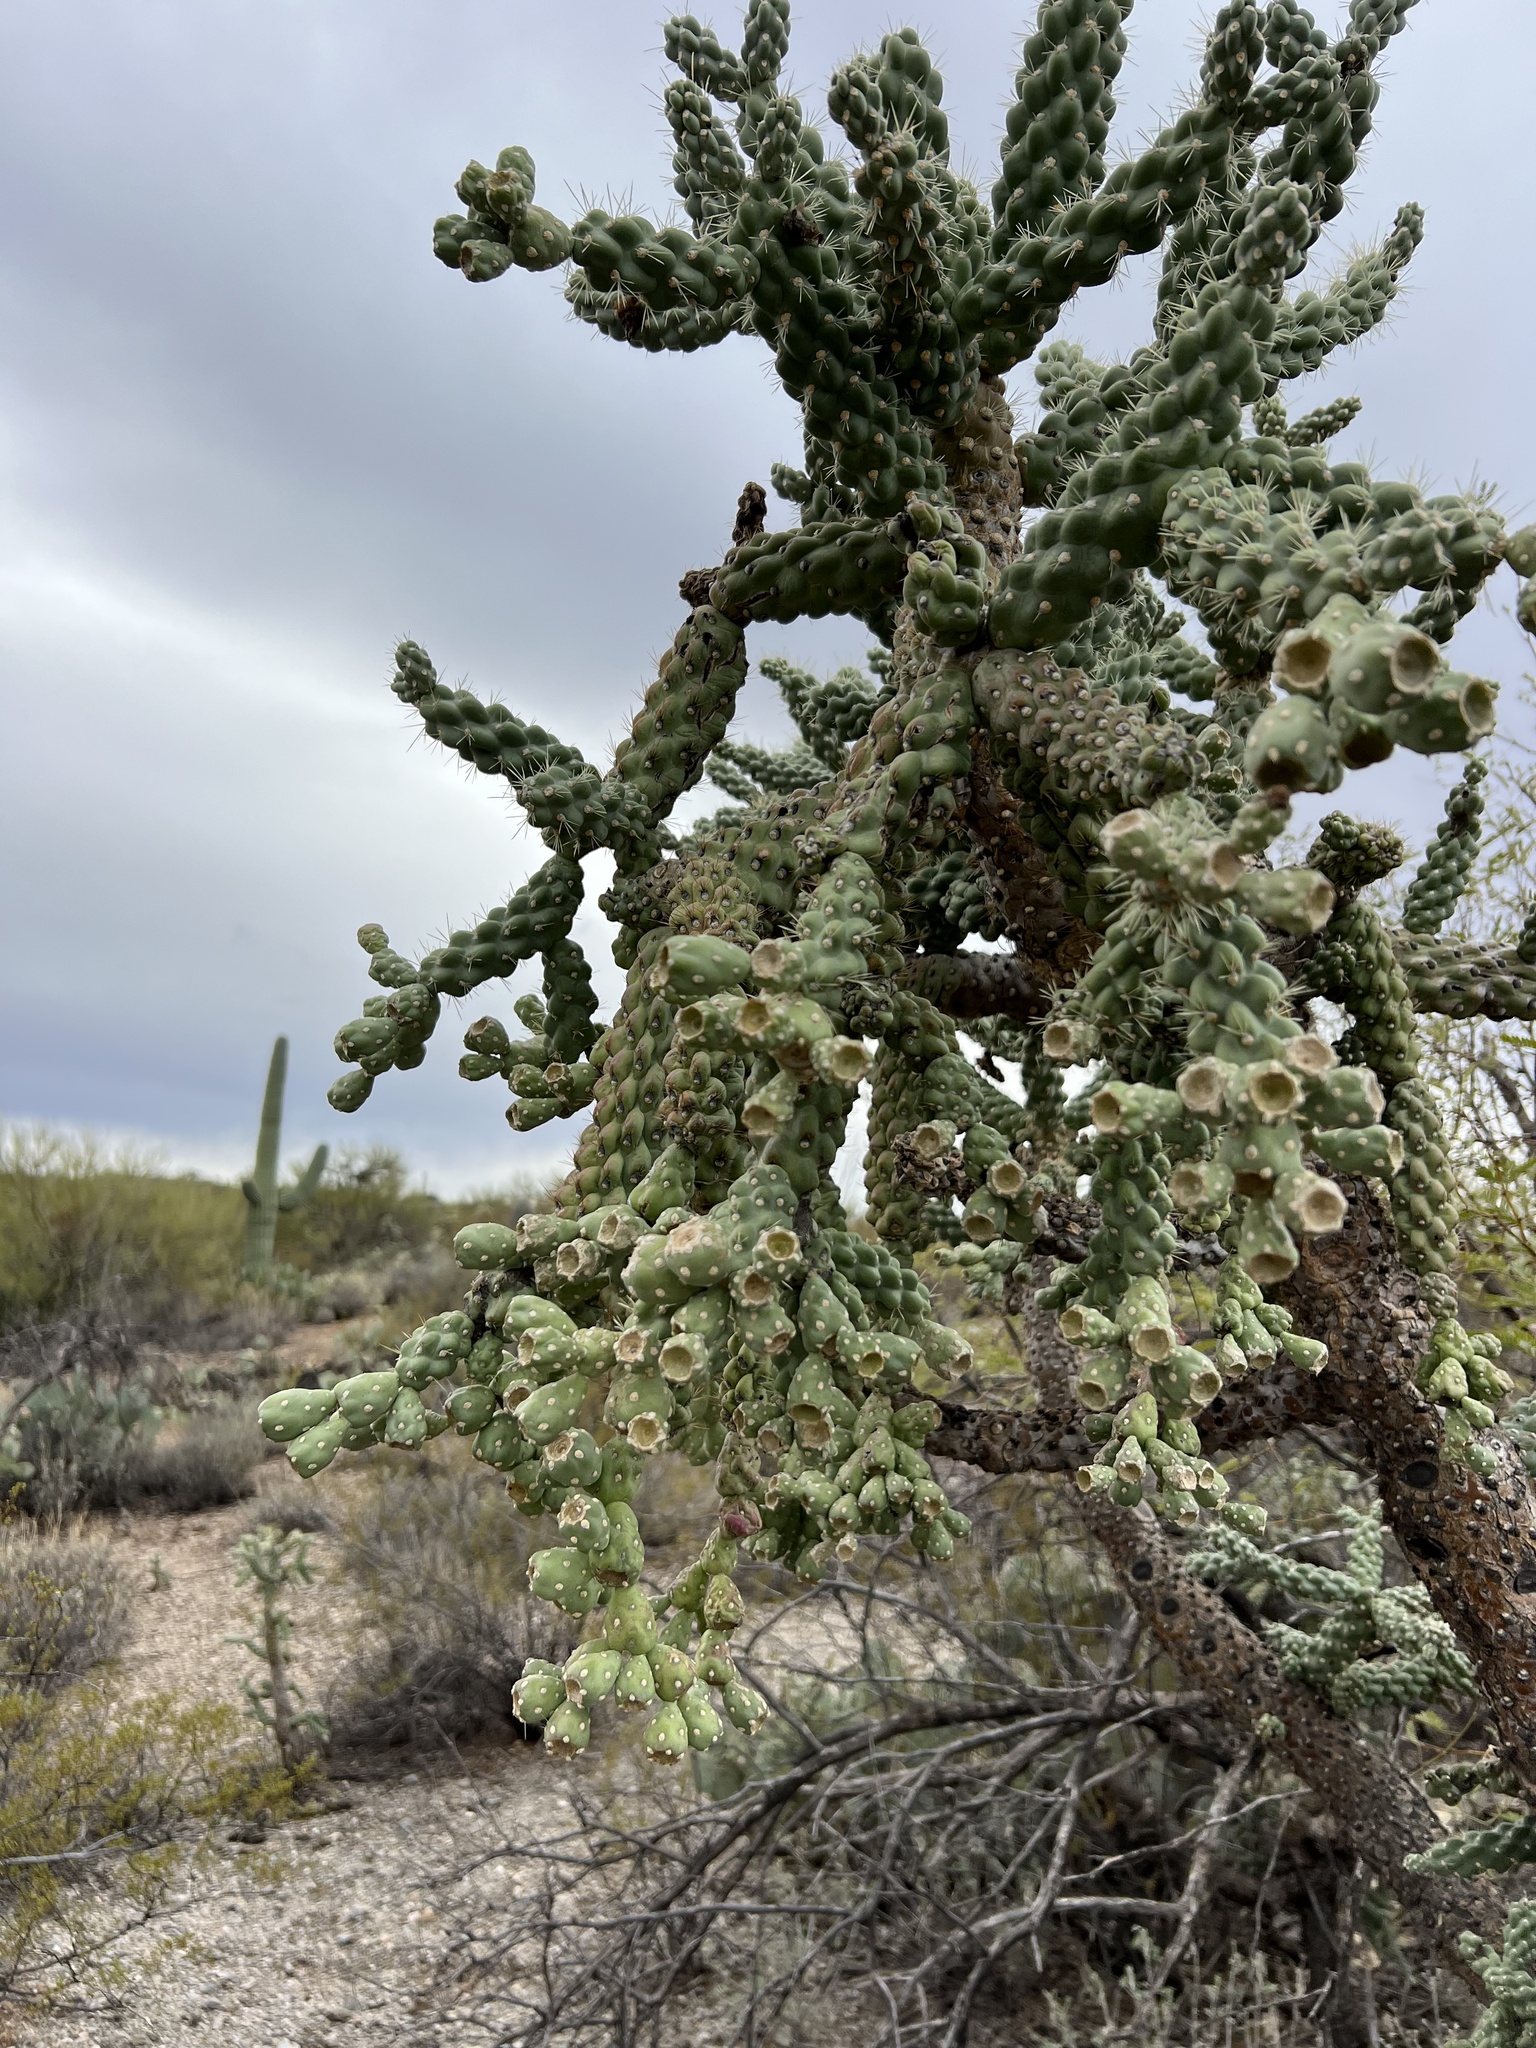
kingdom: Plantae
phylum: Tracheophyta
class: Magnoliopsida
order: Caryophyllales
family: Cactaceae
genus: Cylindropuntia
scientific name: Cylindropuntia fulgida
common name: Jumping cholla
